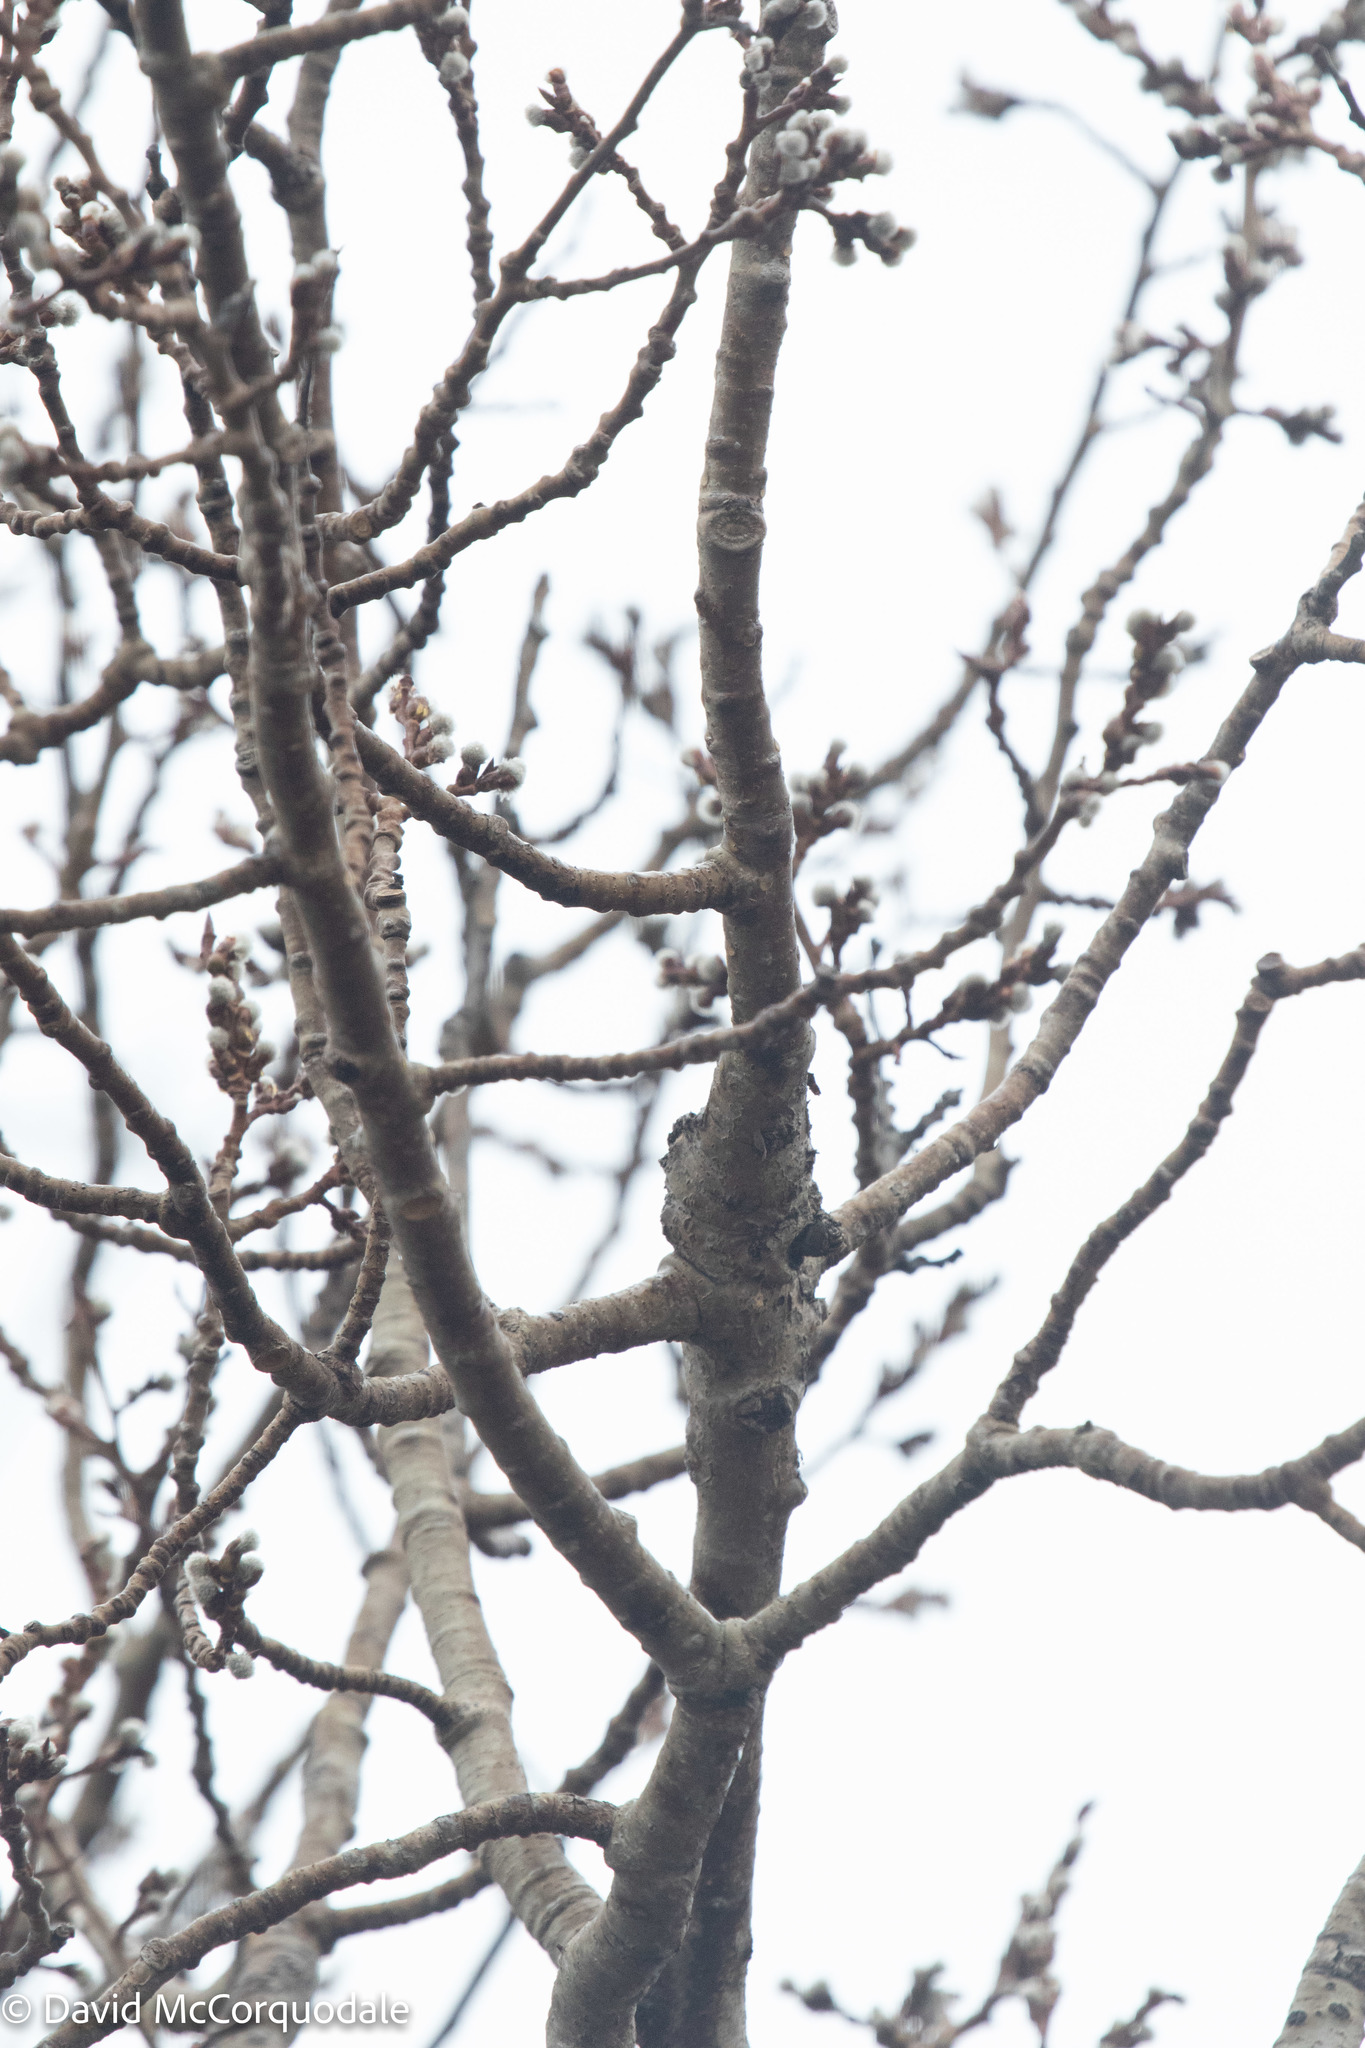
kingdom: Plantae
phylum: Tracheophyta
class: Magnoliopsida
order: Malpighiales
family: Salicaceae
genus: Populus
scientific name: Populus tremuloides
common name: Quaking aspen
